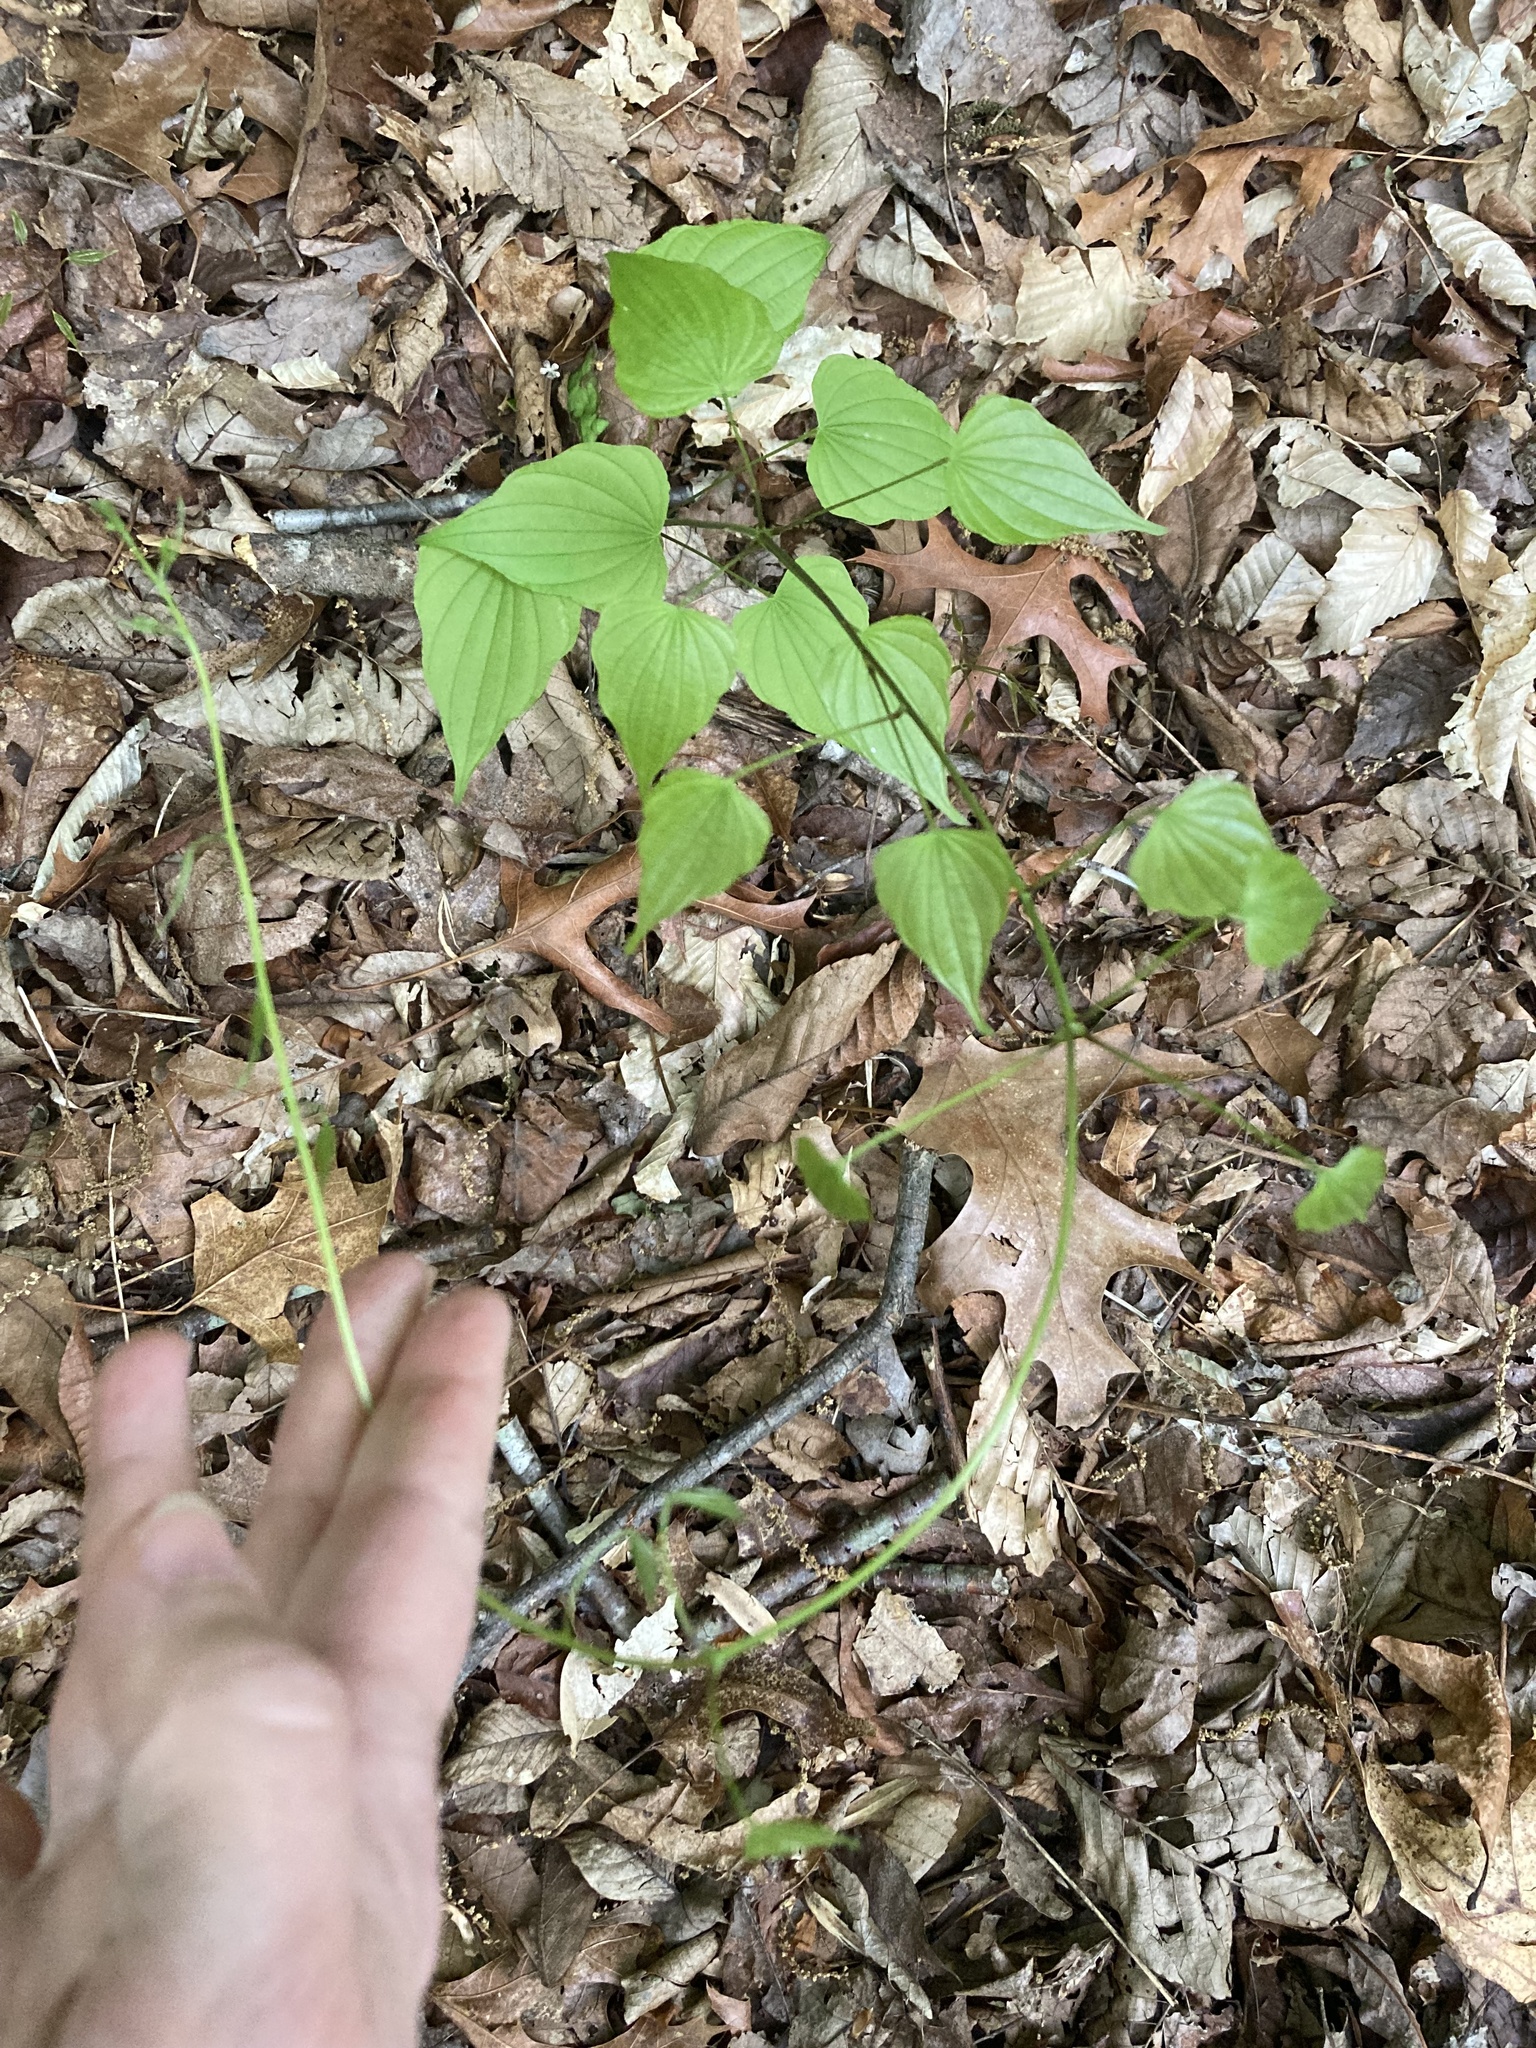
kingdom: Plantae
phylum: Tracheophyta
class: Liliopsida
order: Dioscoreales
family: Dioscoreaceae
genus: Dioscorea
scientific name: Dioscorea villosa
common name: Wild yam
